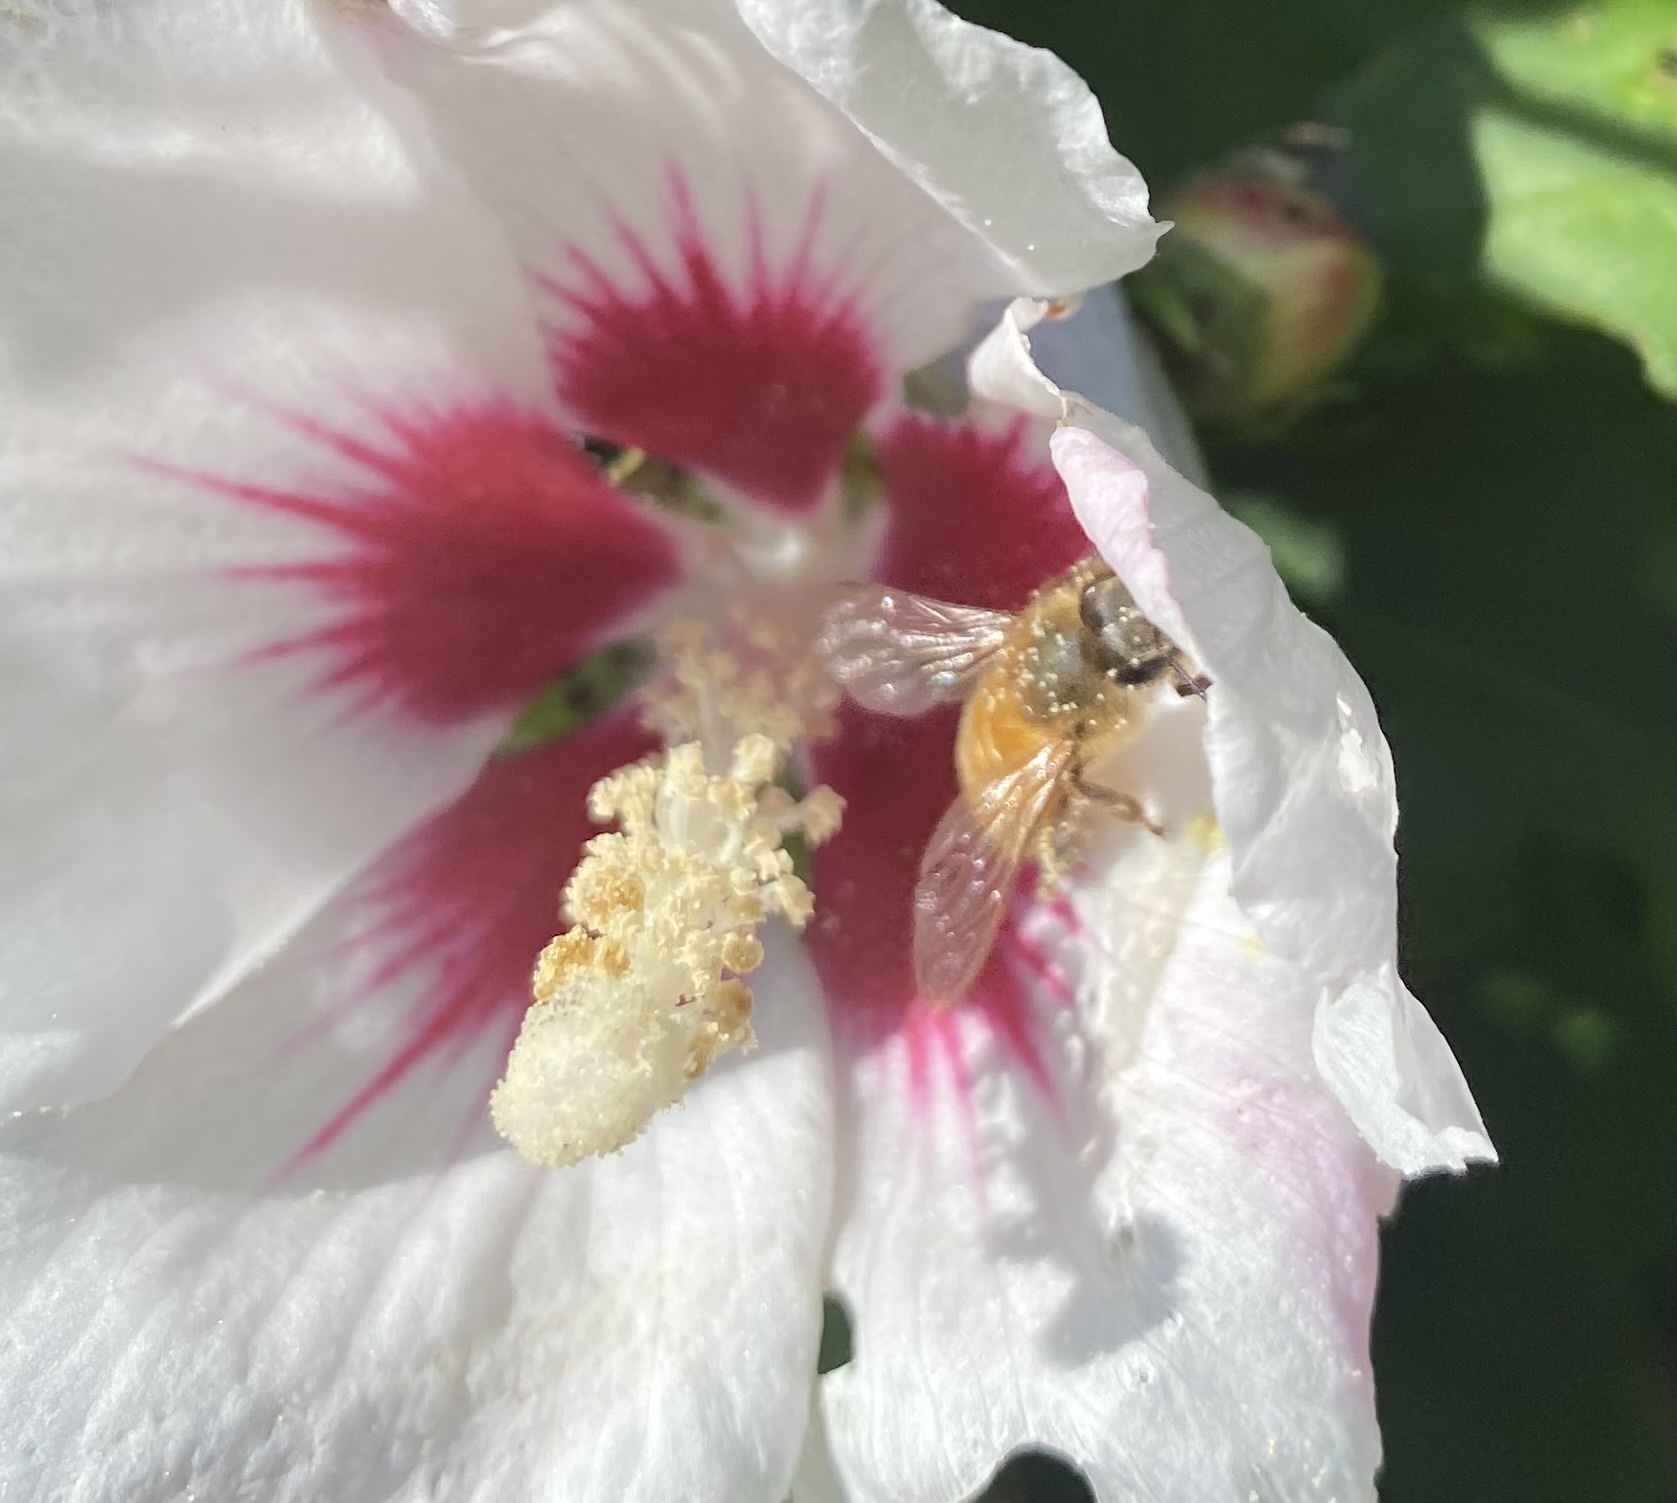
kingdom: Animalia
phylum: Arthropoda
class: Insecta
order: Hymenoptera
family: Apidae
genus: Apis
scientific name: Apis mellifera
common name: Honey bee
